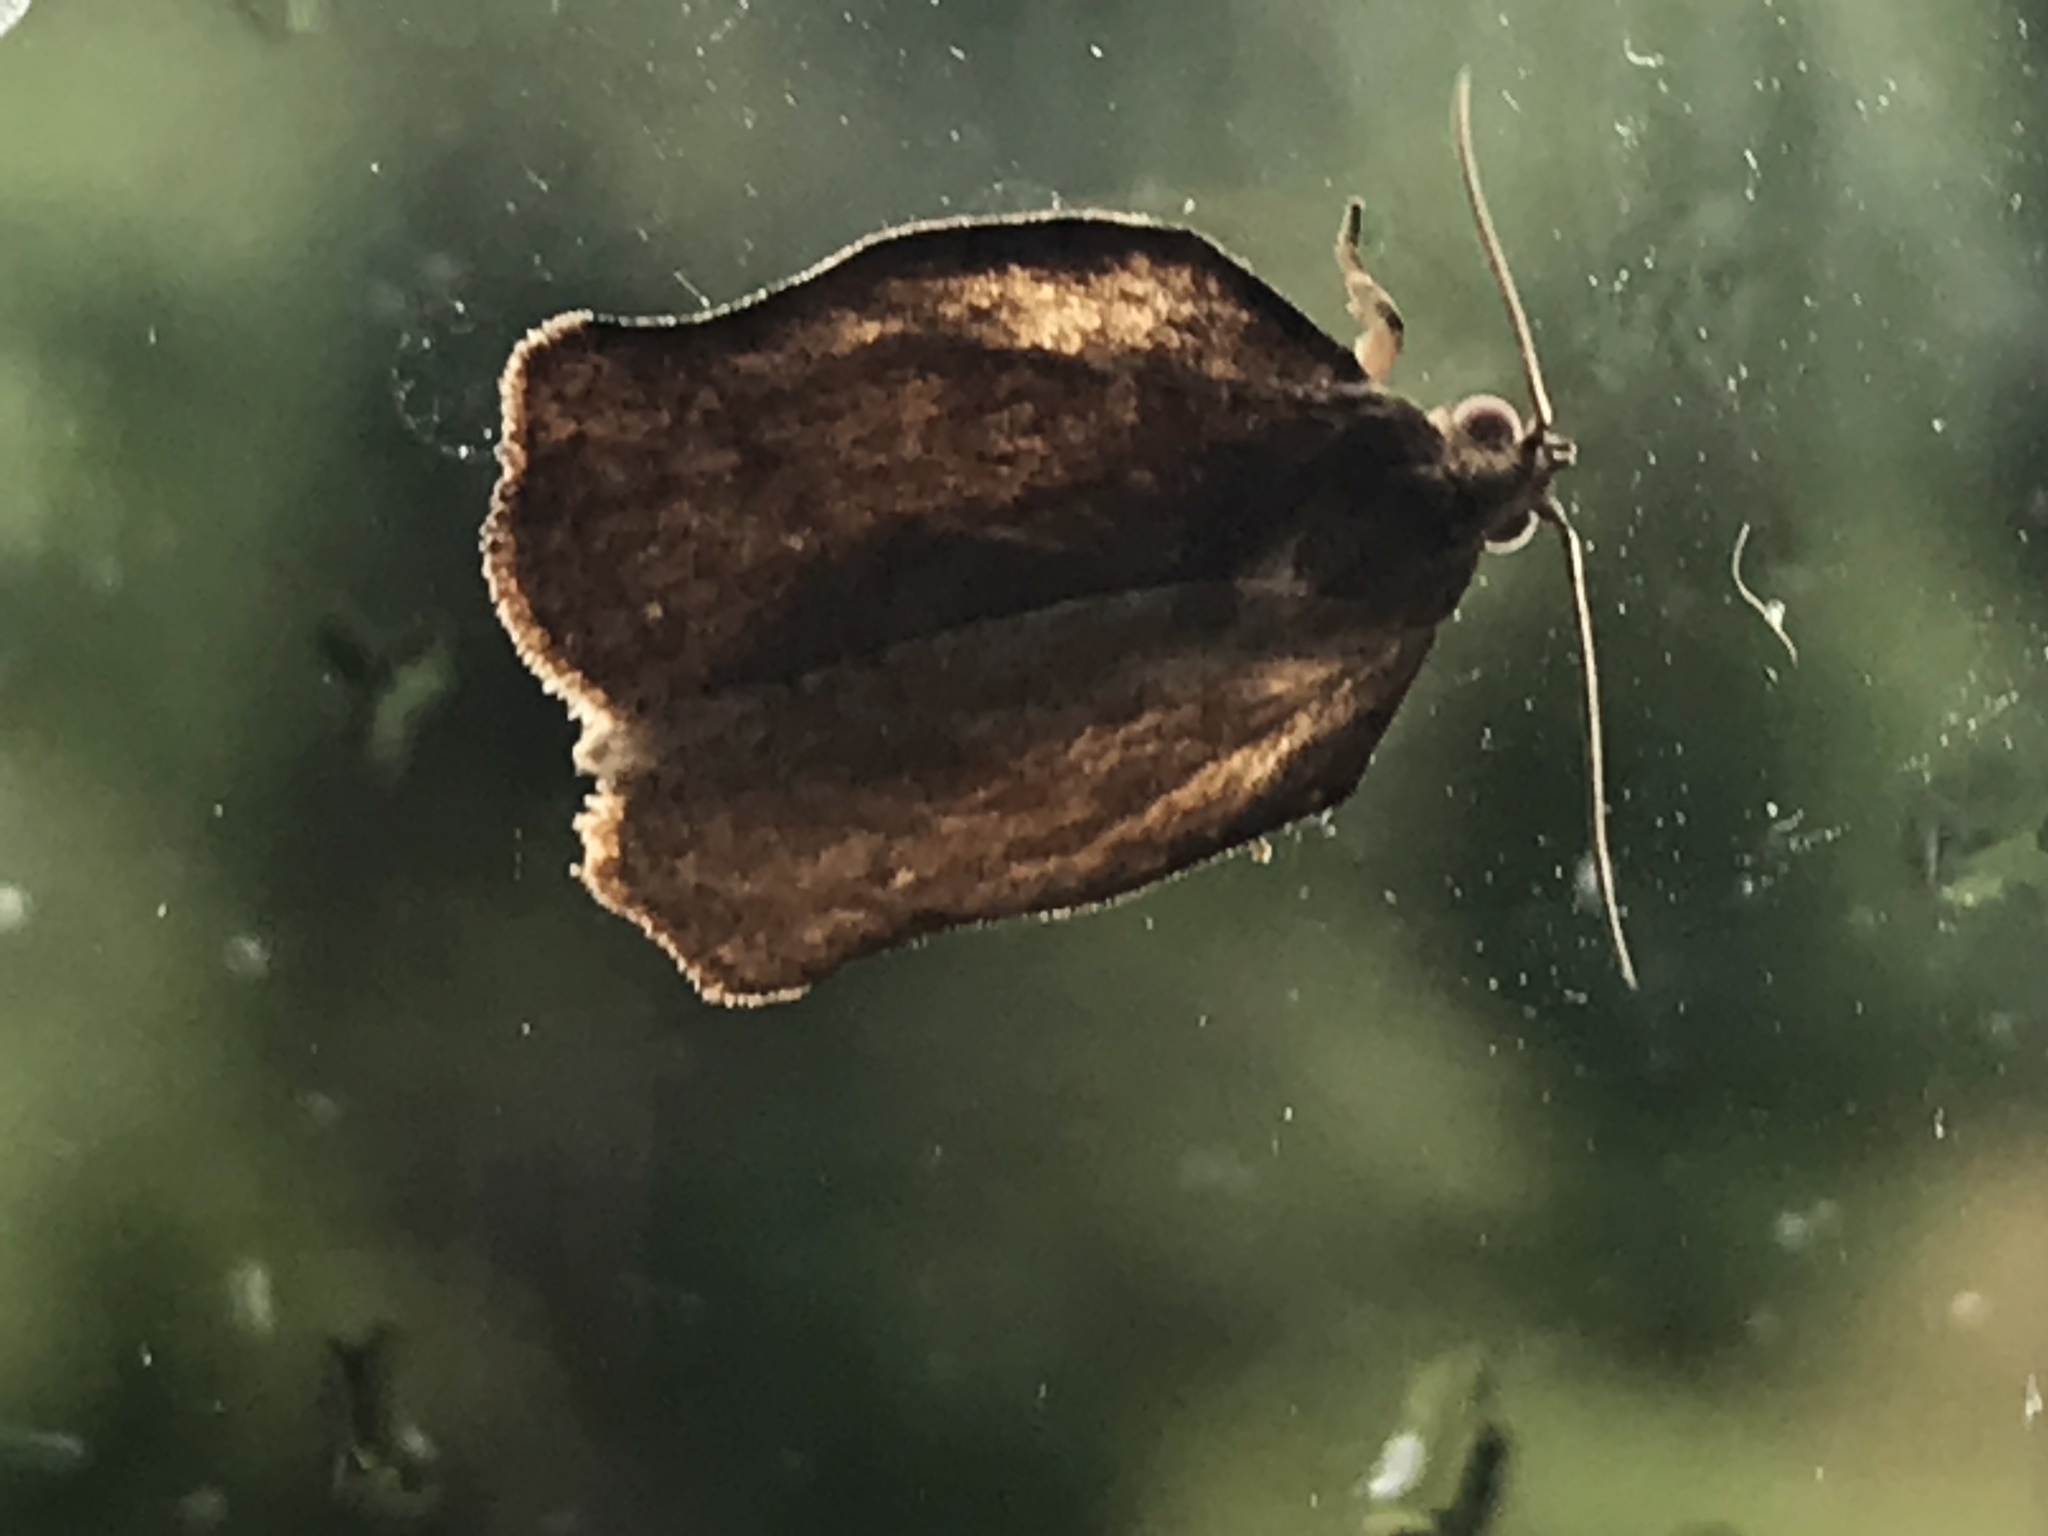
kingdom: Animalia
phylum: Arthropoda
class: Insecta
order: Lepidoptera
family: Tortricidae
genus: Archips
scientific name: Archips purpurana
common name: Omnivorous leafroller
